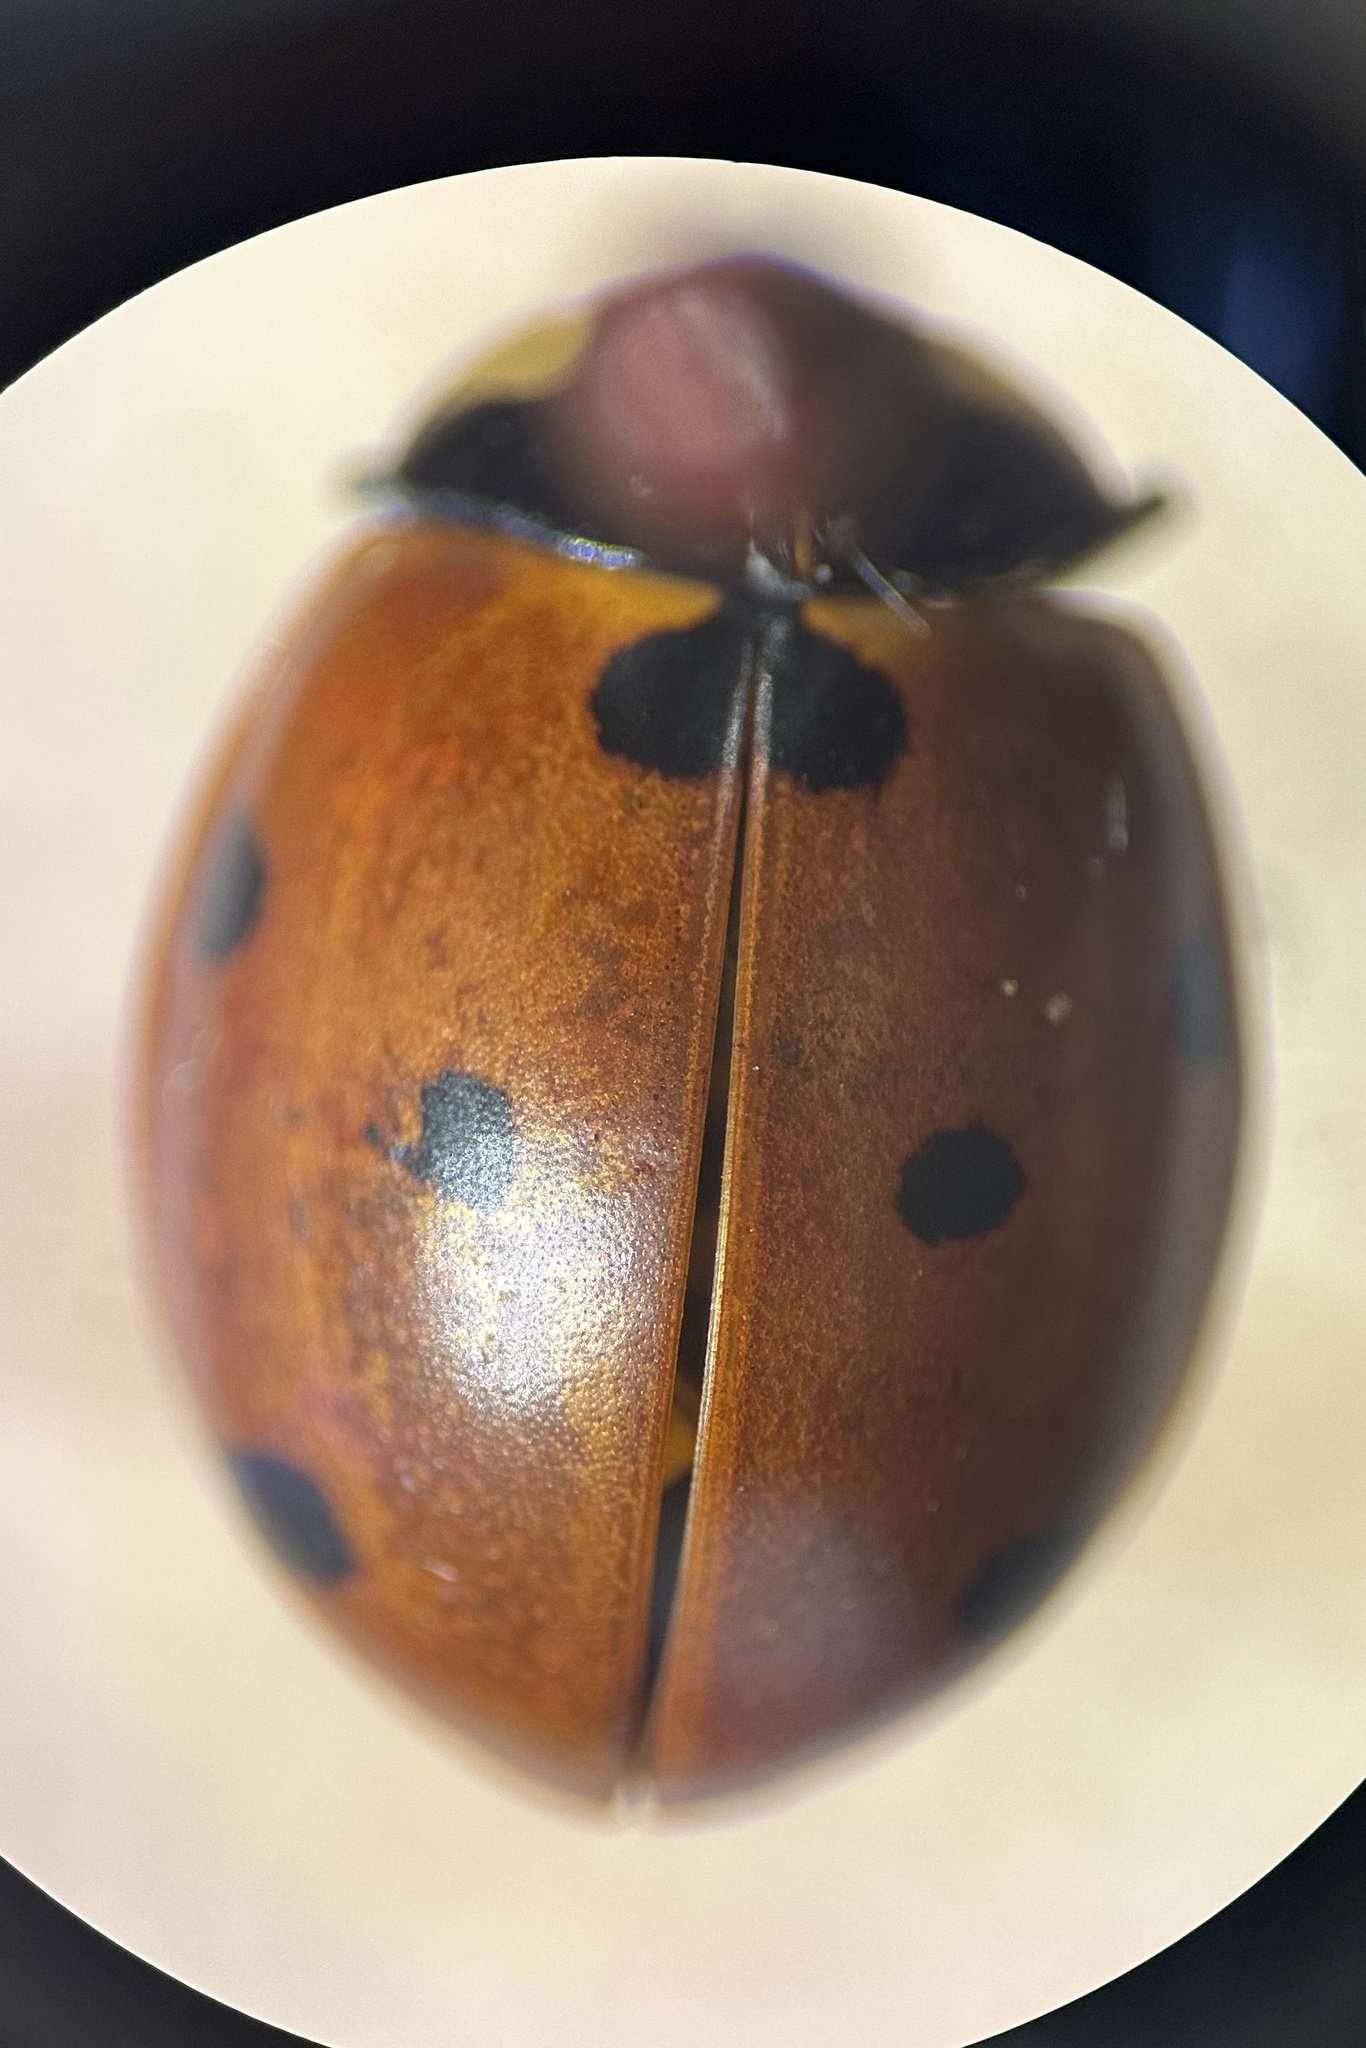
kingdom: Animalia
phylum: Arthropoda
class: Insecta
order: Coleoptera
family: Coccinellidae
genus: Coccinella
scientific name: Coccinella septempunctata
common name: Sevenspotted lady beetle
